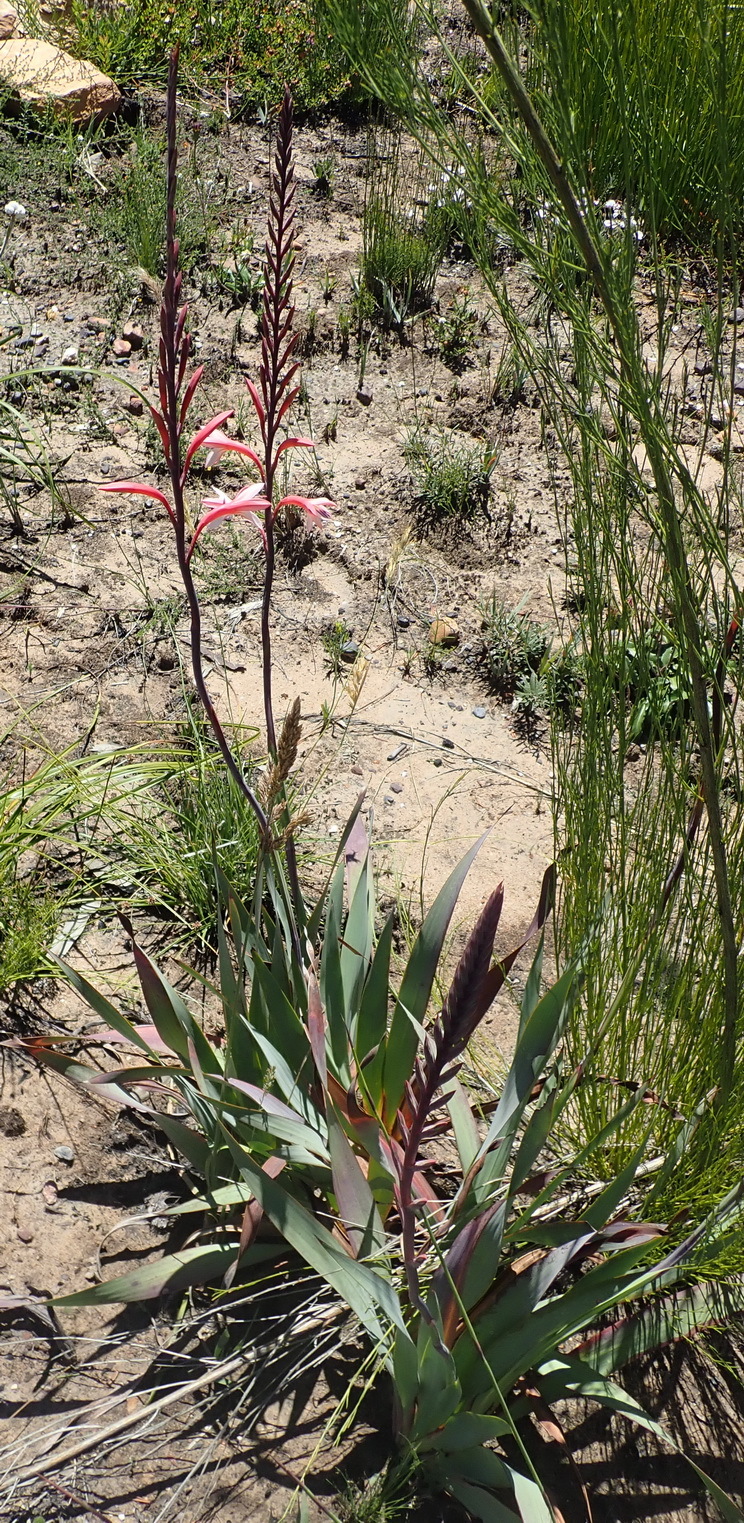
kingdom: Plantae
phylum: Tracheophyta
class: Liliopsida
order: Asparagales
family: Iridaceae
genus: Watsonia
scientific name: Watsonia fourcadei
